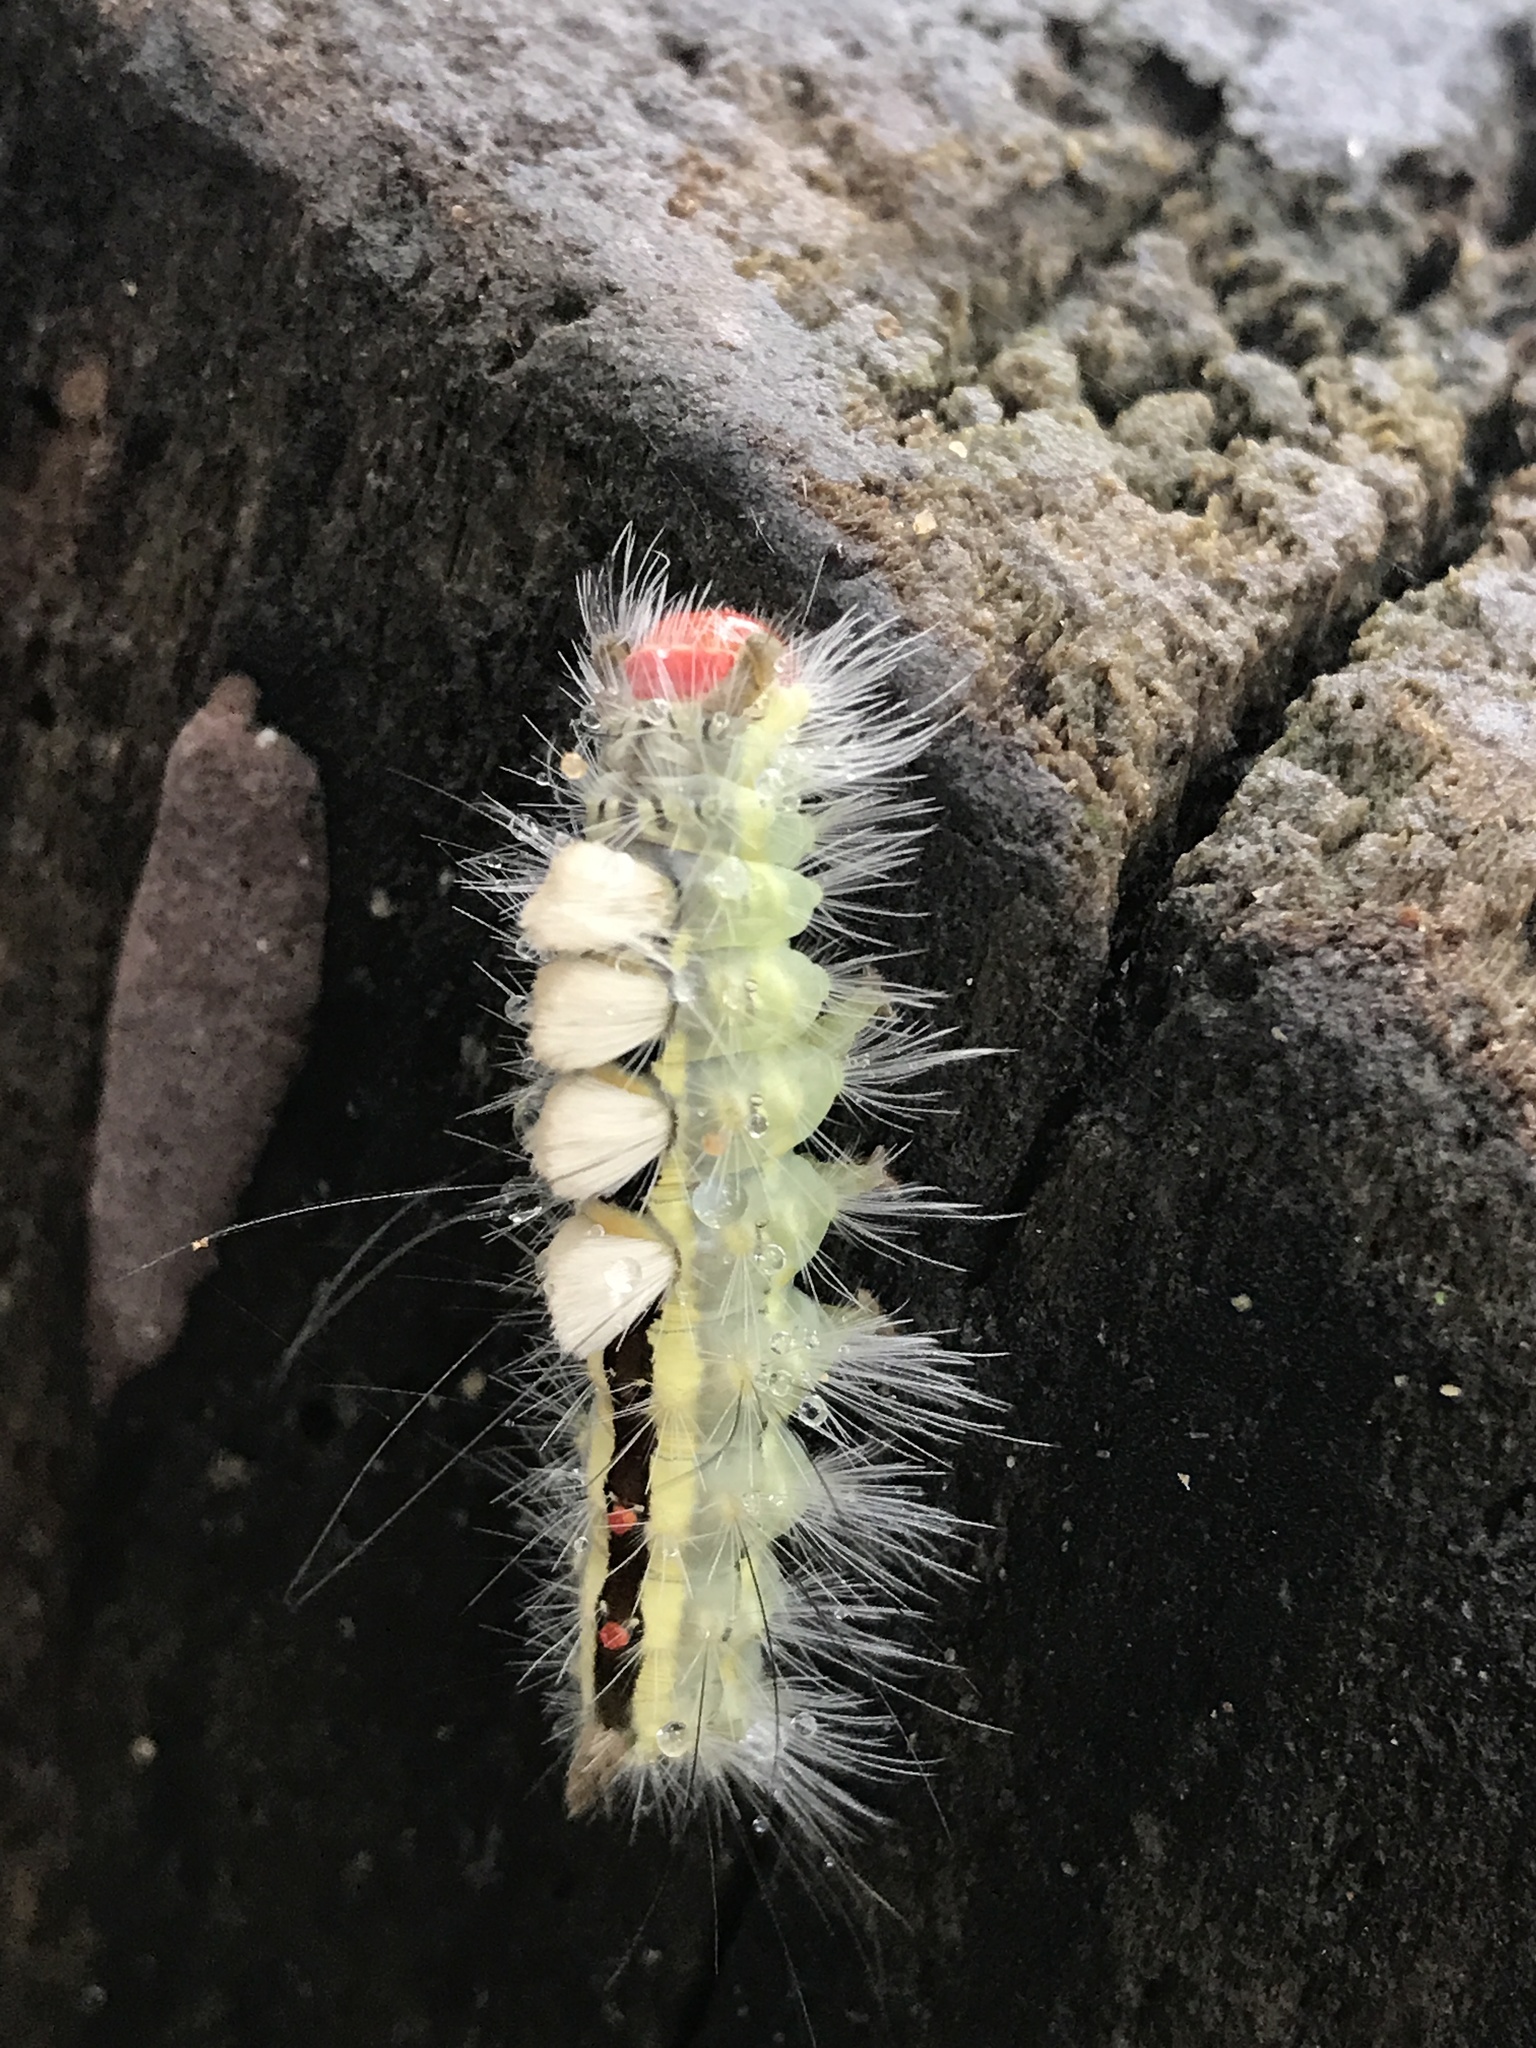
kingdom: Animalia
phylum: Arthropoda
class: Insecta
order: Lepidoptera
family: Erebidae
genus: Orgyia
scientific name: Orgyia leucostigma
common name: White-marked tussock moth
